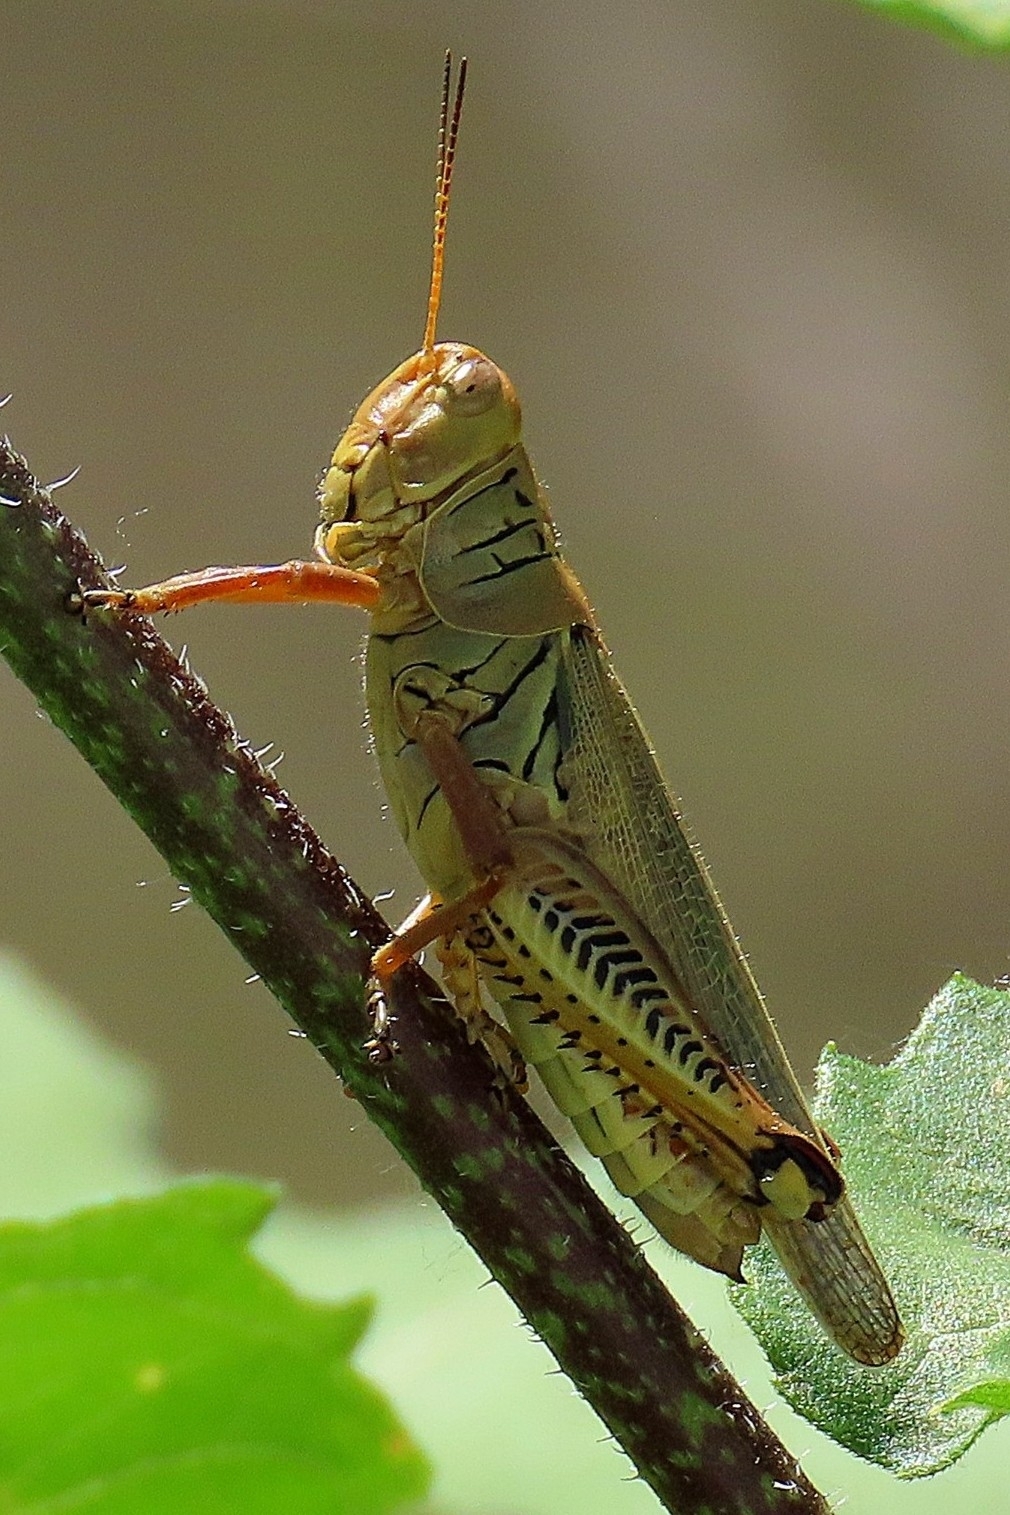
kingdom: Animalia
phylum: Arthropoda
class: Insecta
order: Orthoptera
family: Acrididae
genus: Melanoplus
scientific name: Melanoplus differentialis
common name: Differential grasshopper
